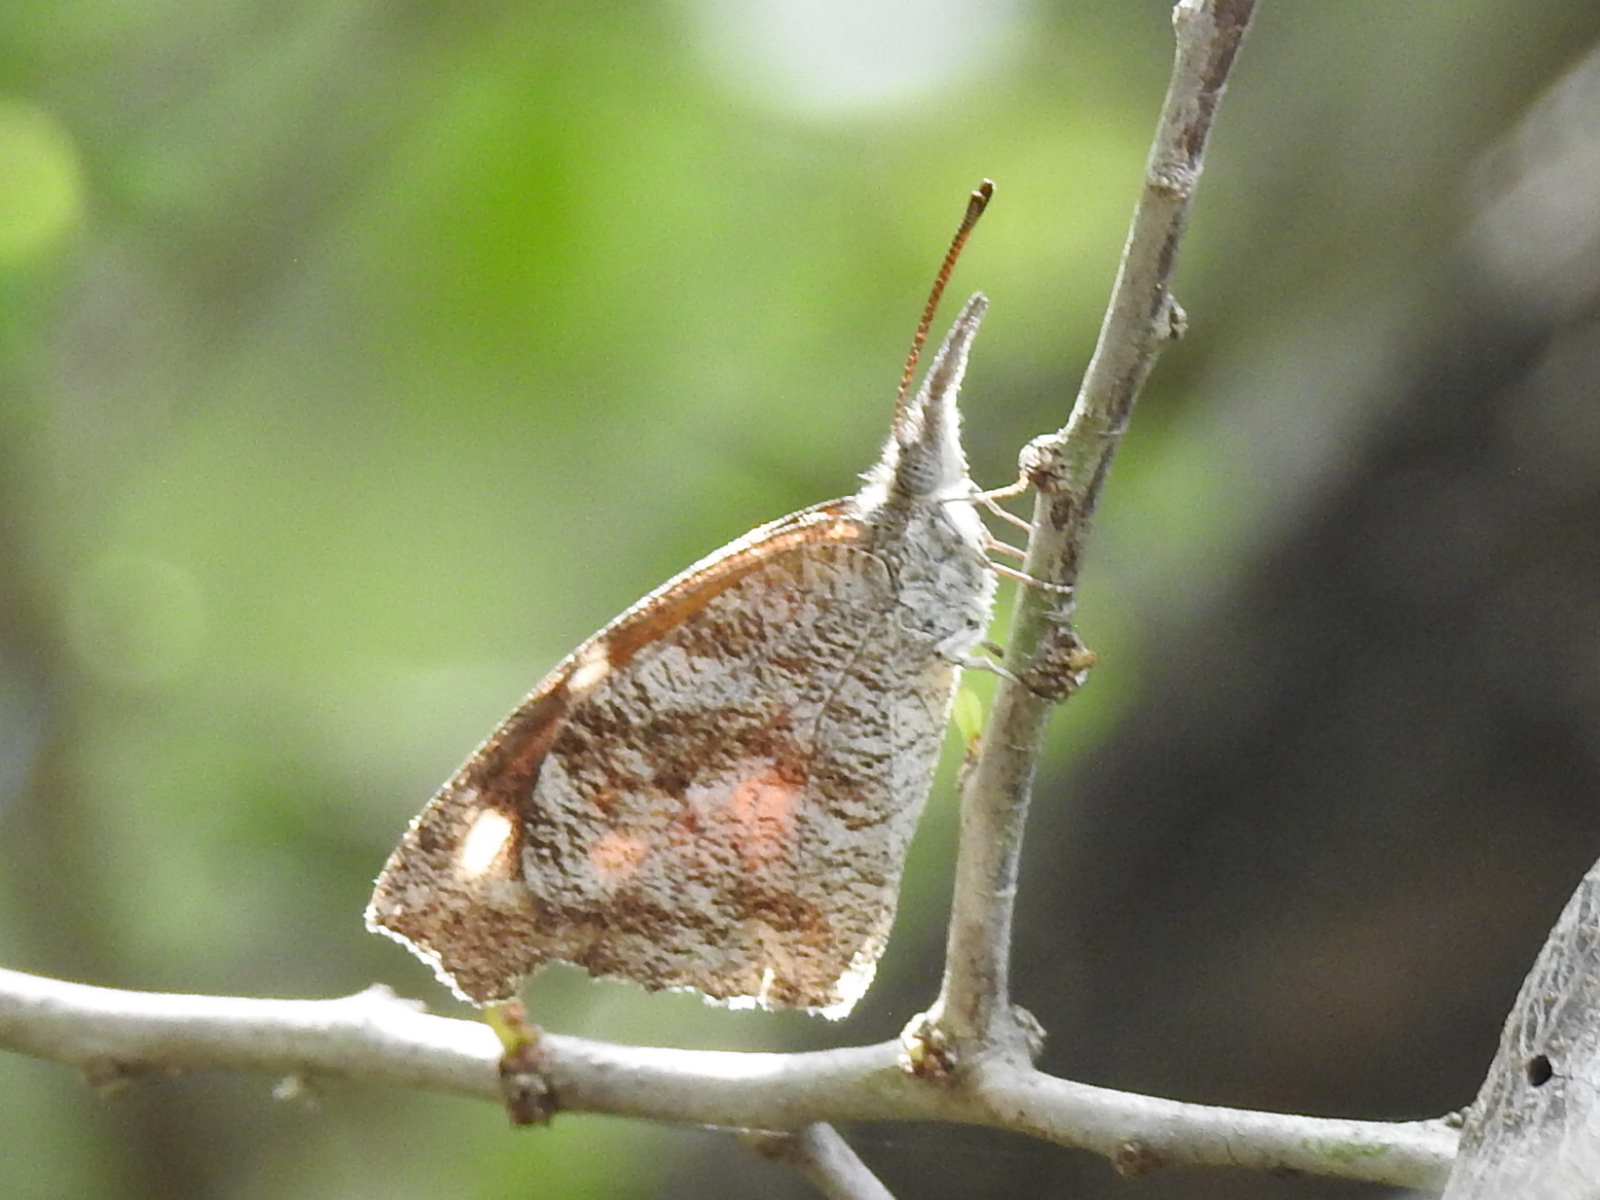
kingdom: Animalia
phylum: Arthropoda
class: Insecta
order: Lepidoptera
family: Nymphalidae
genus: Libytheana
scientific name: Libytheana carinenta
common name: American snout
